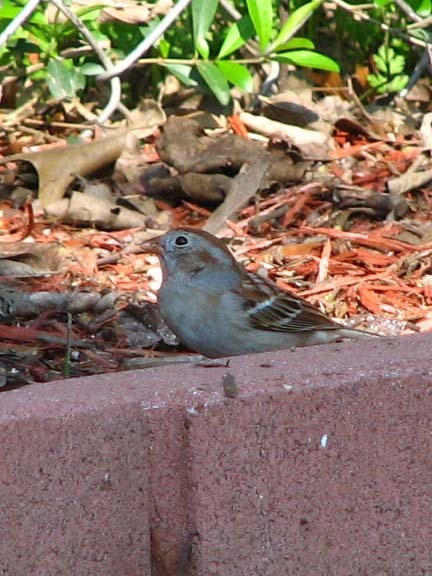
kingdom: Animalia
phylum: Chordata
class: Aves
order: Passeriformes
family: Passerellidae
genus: Spizella
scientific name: Spizella pusilla
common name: Field sparrow
